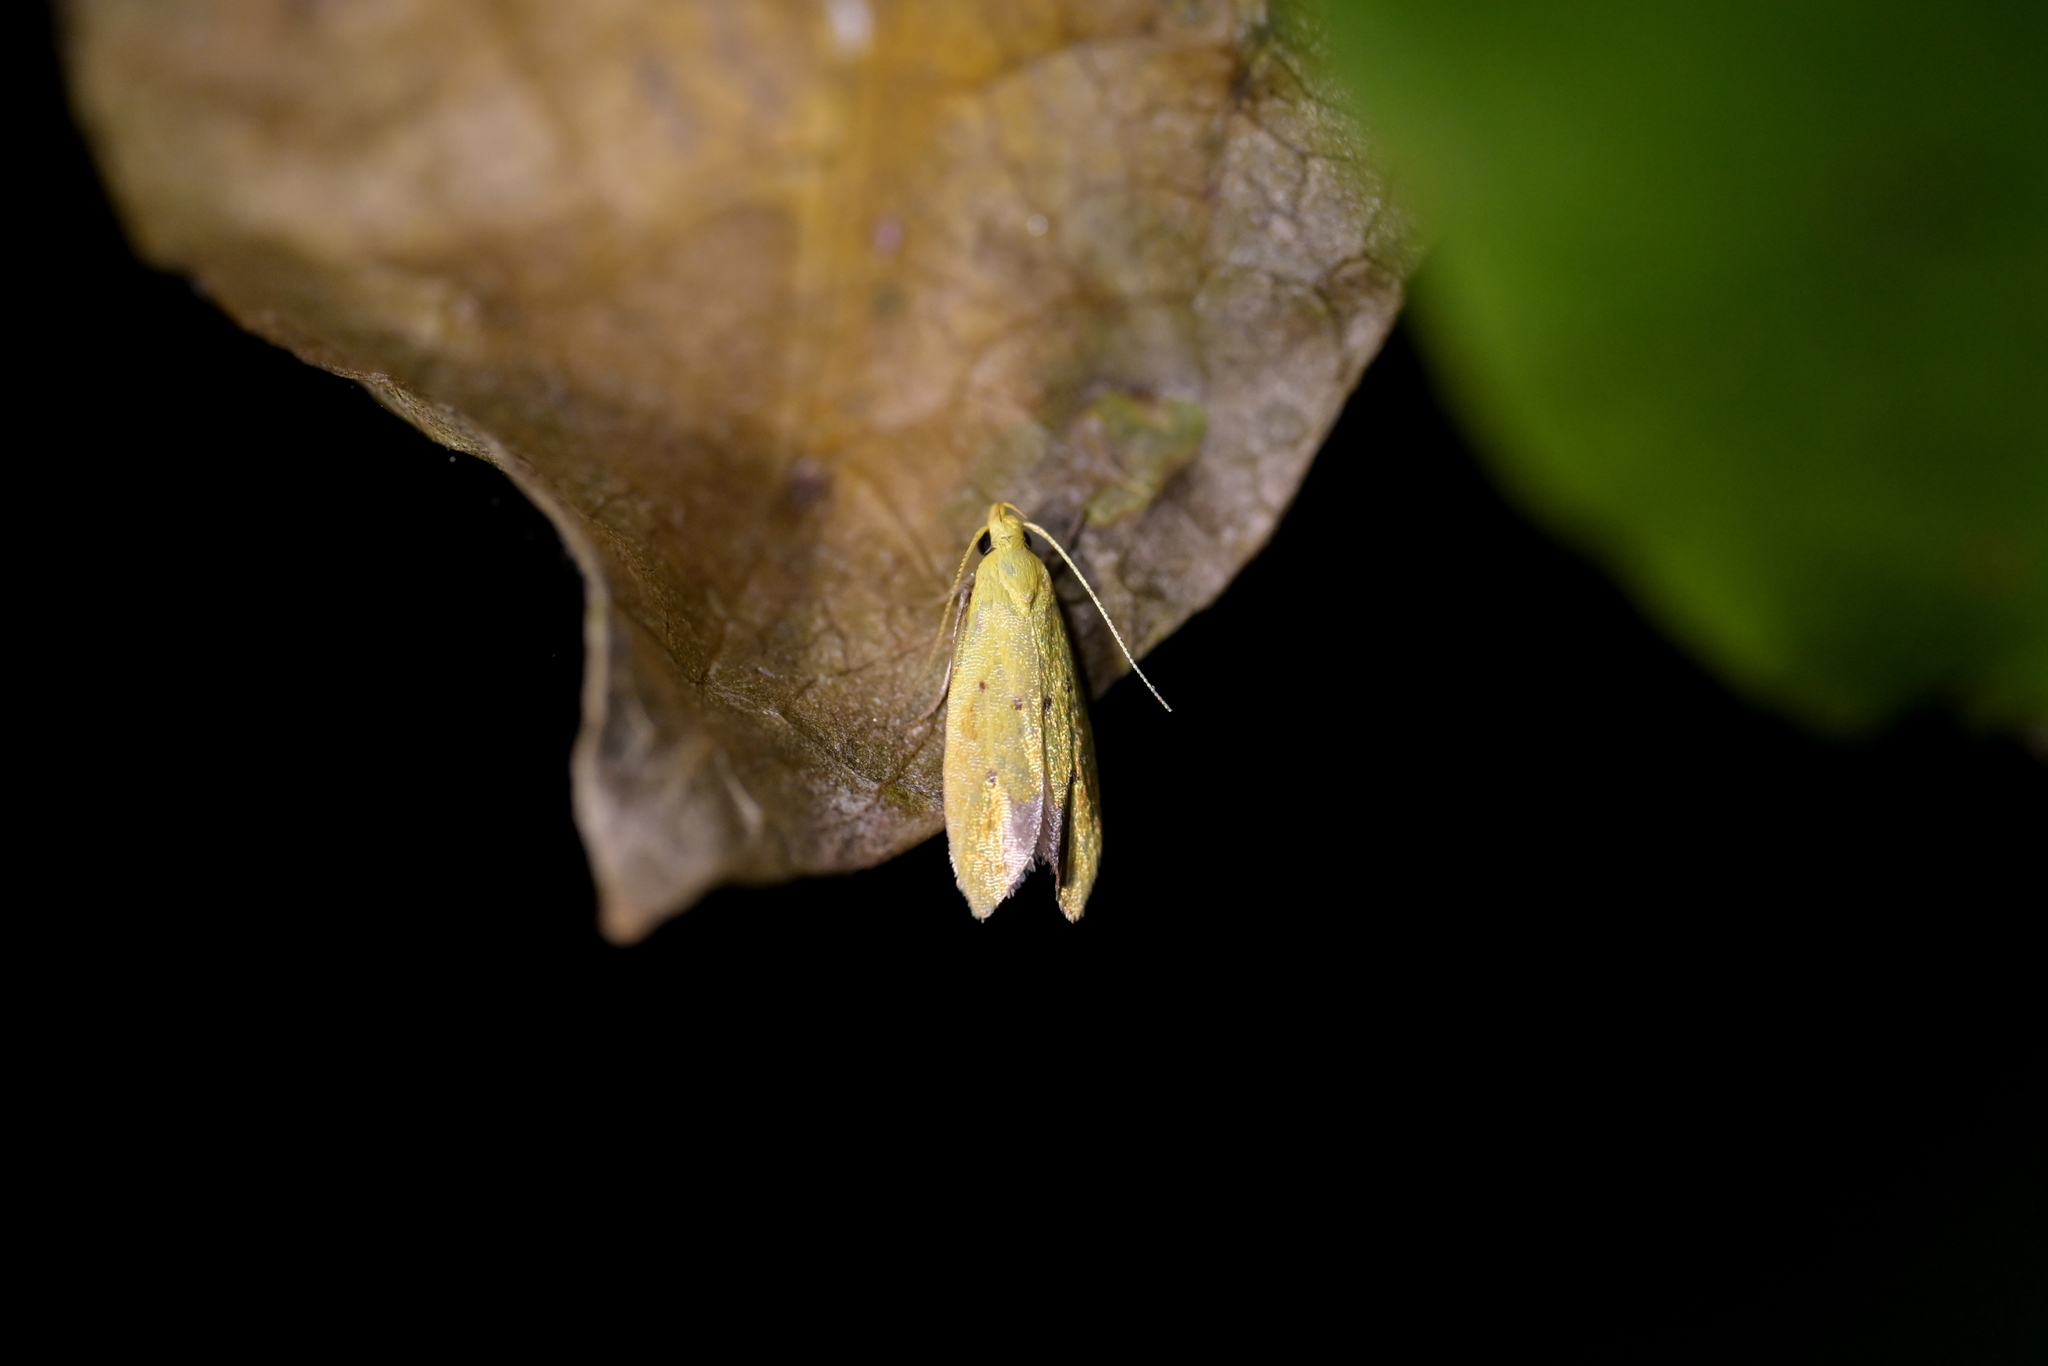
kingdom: Animalia
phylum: Arthropoda
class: Insecta
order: Lepidoptera
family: Oecophoridae
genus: Gymnobathra
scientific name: Gymnobathra
